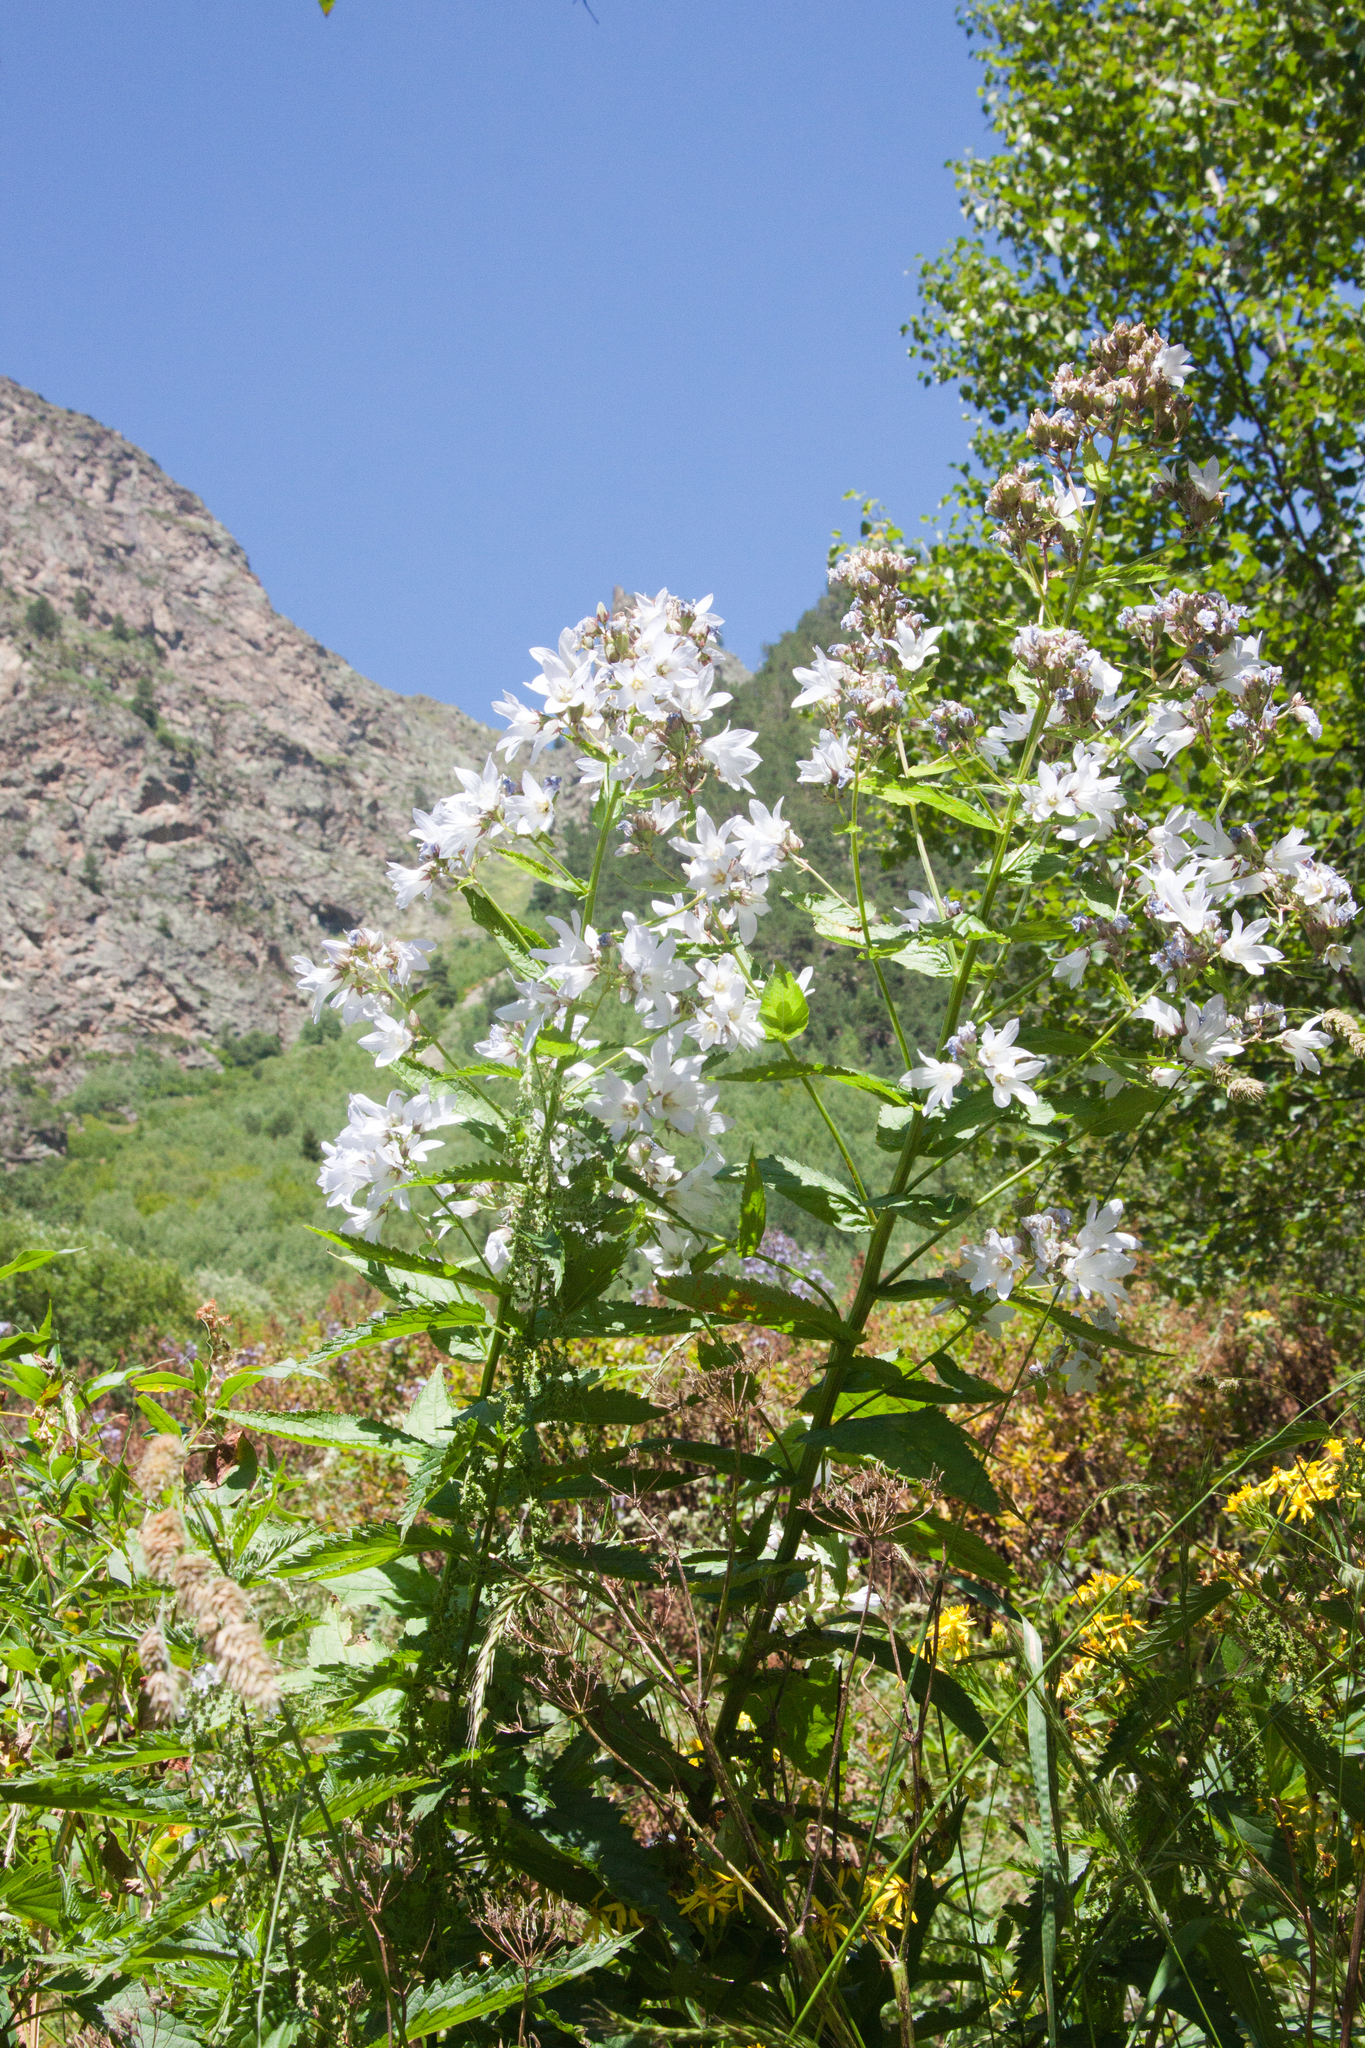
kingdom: Plantae
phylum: Tracheophyta
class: Magnoliopsida
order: Asterales
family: Campanulaceae
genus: Campanula
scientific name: Campanula lactiflora
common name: Milky bellflower
